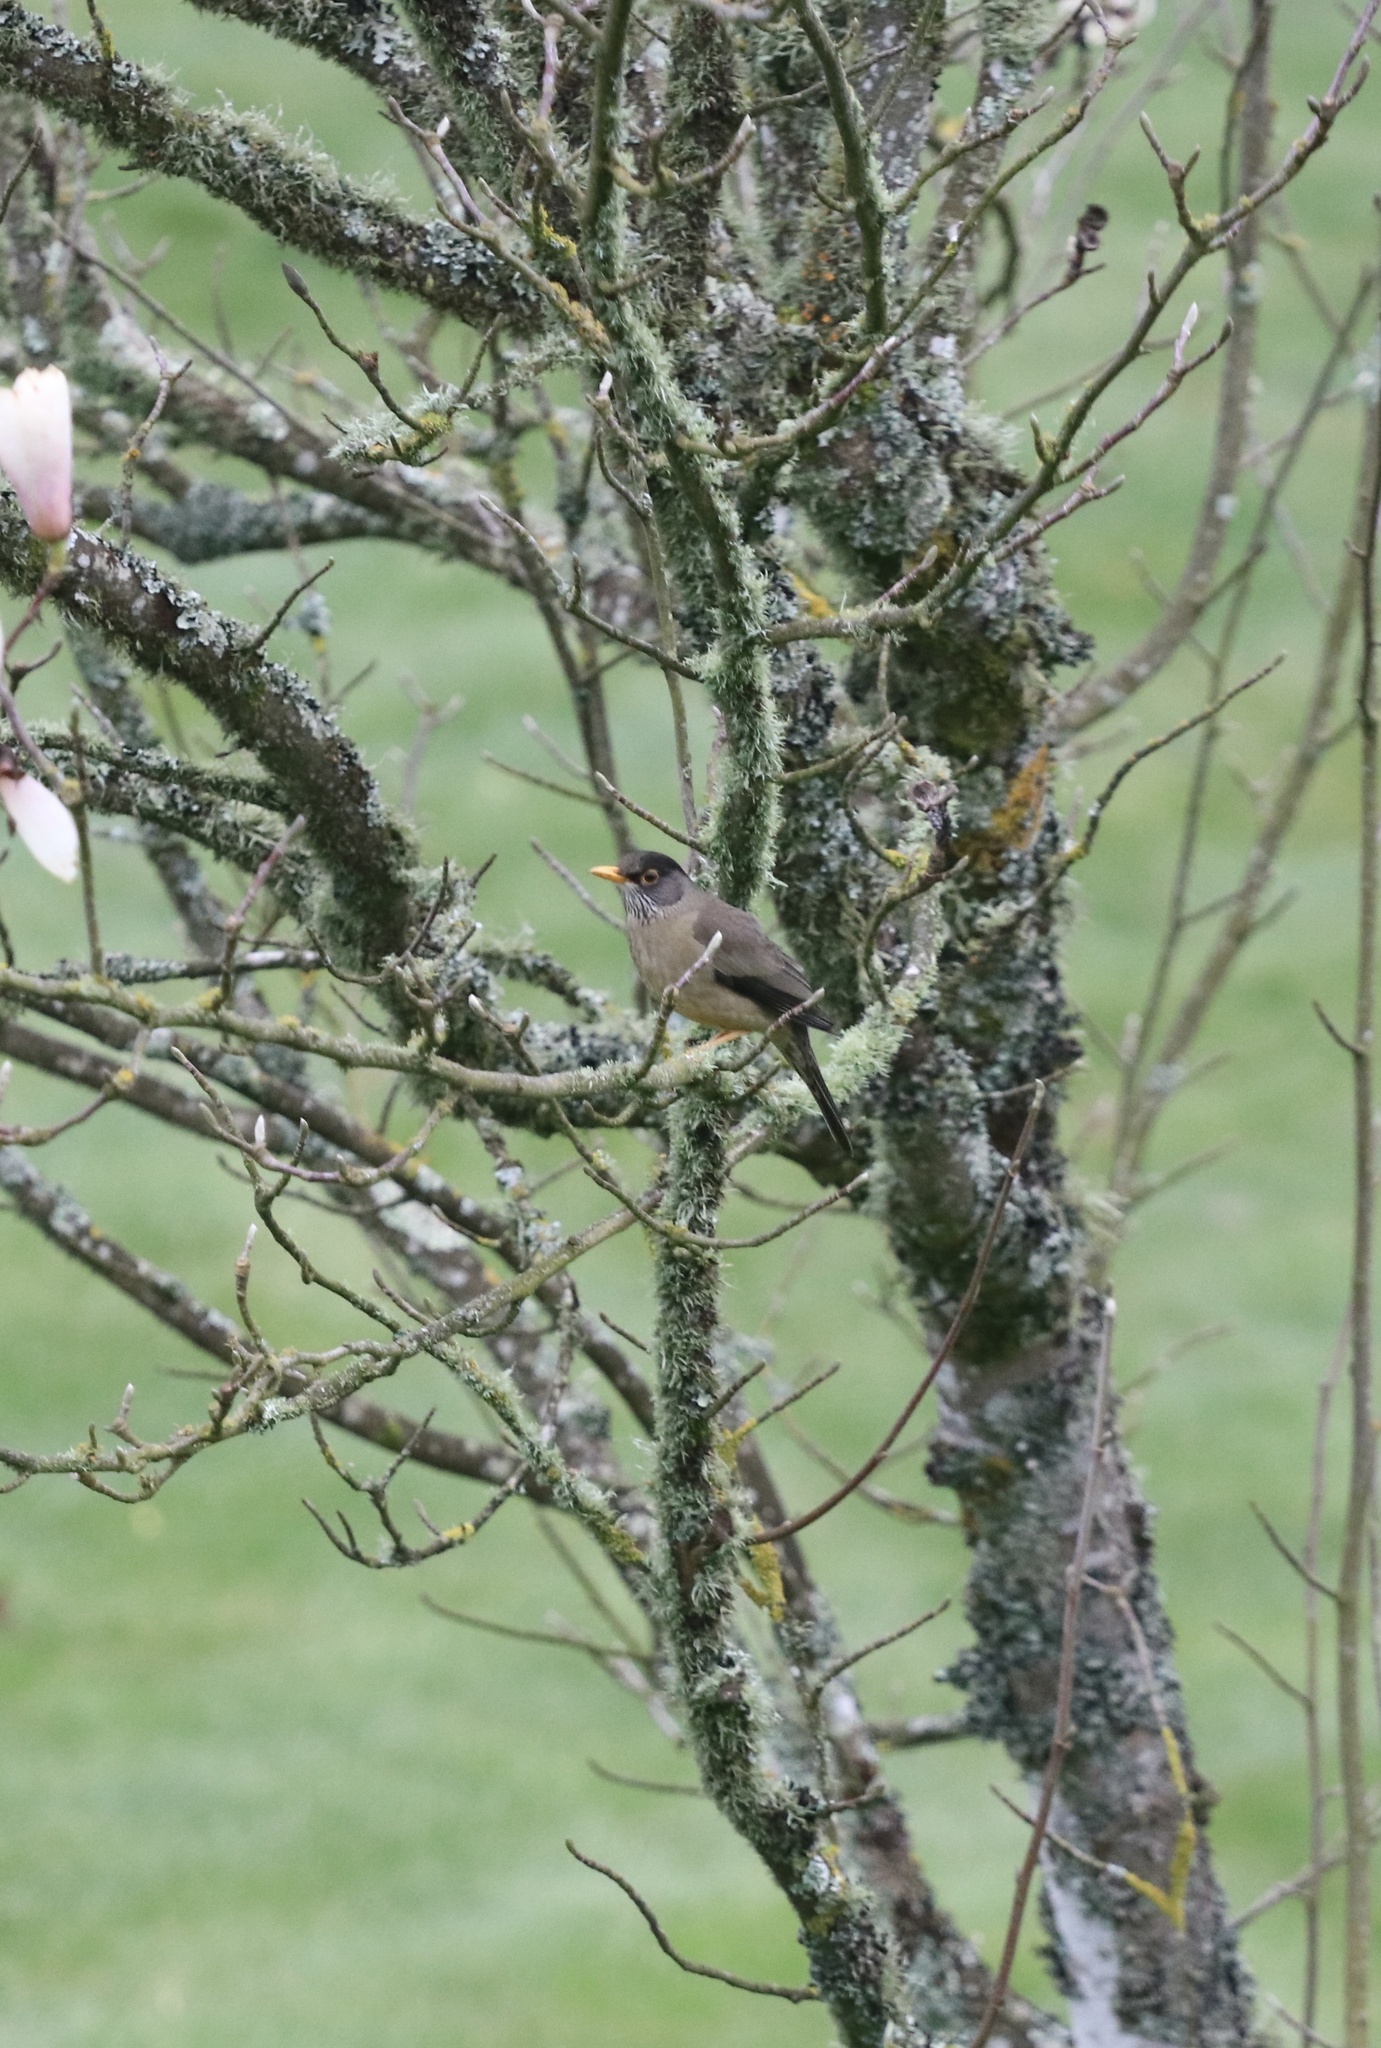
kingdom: Animalia
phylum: Chordata
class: Aves
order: Passeriformes
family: Turdidae
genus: Turdus
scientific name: Turdus falcklandii
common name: Austral thrush
